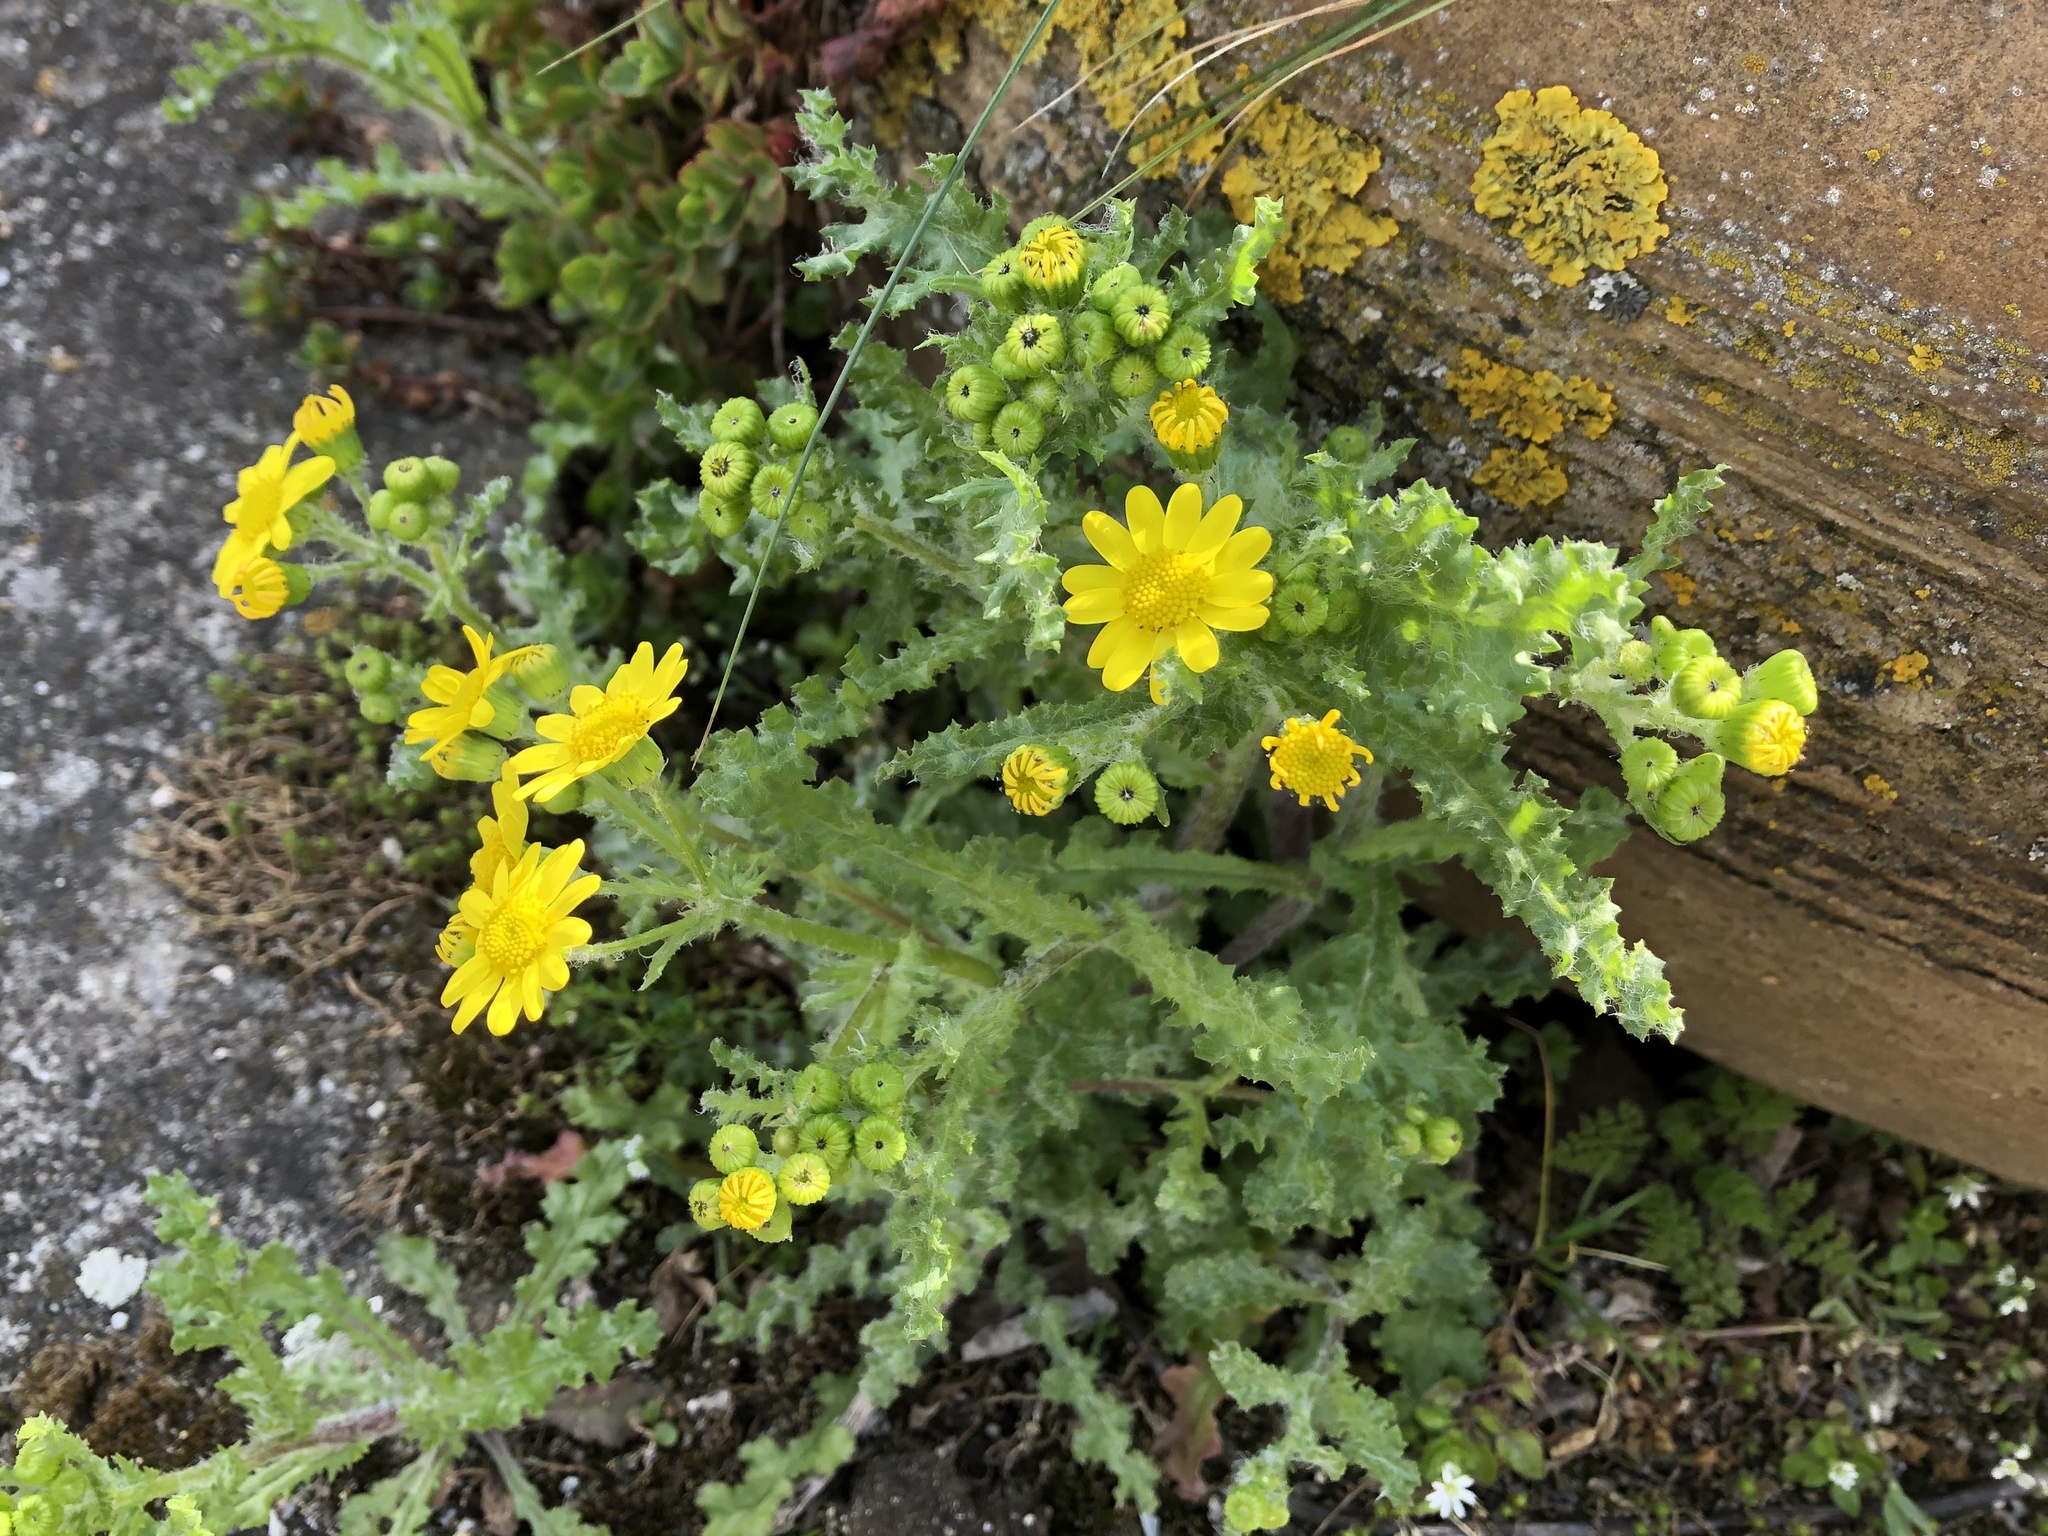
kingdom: Plantae
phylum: Tracheophyta
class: Magnoliopsida
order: Asterales
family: Asteraceae
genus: Senecio
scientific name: Senecio vernalis
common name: Eastern groundsel
